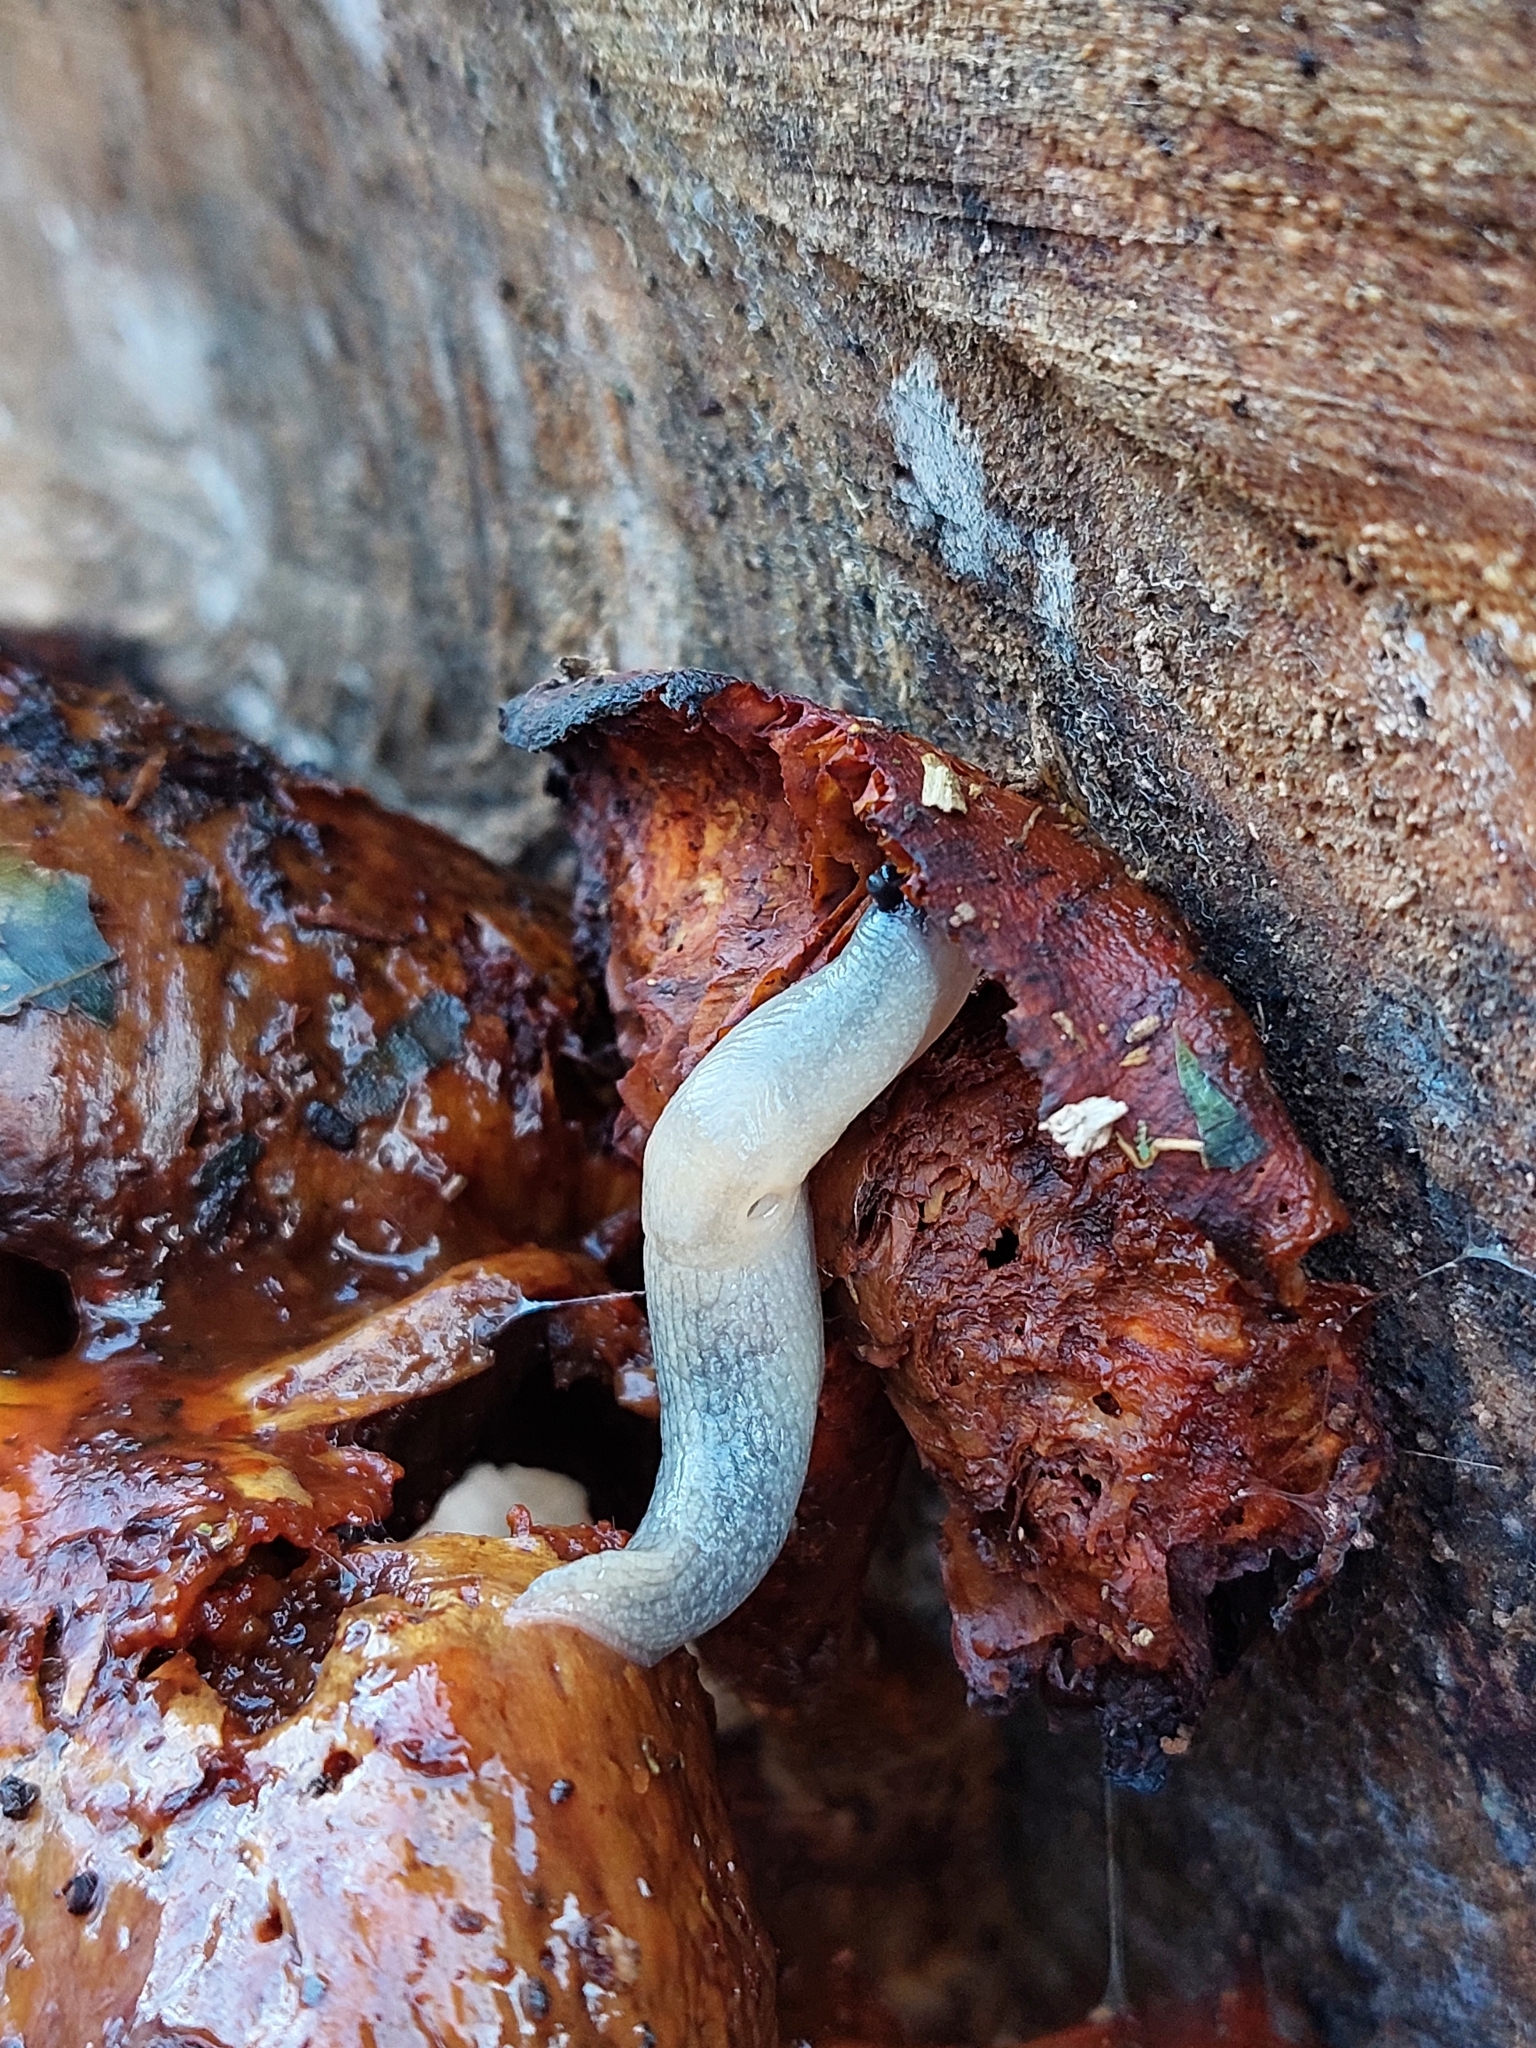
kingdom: Animalia
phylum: Mollusca
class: Gastropoda
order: Stylommatophora
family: Agriolimacidae
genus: Krynickillus
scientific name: Krynickillus melanocephalus
